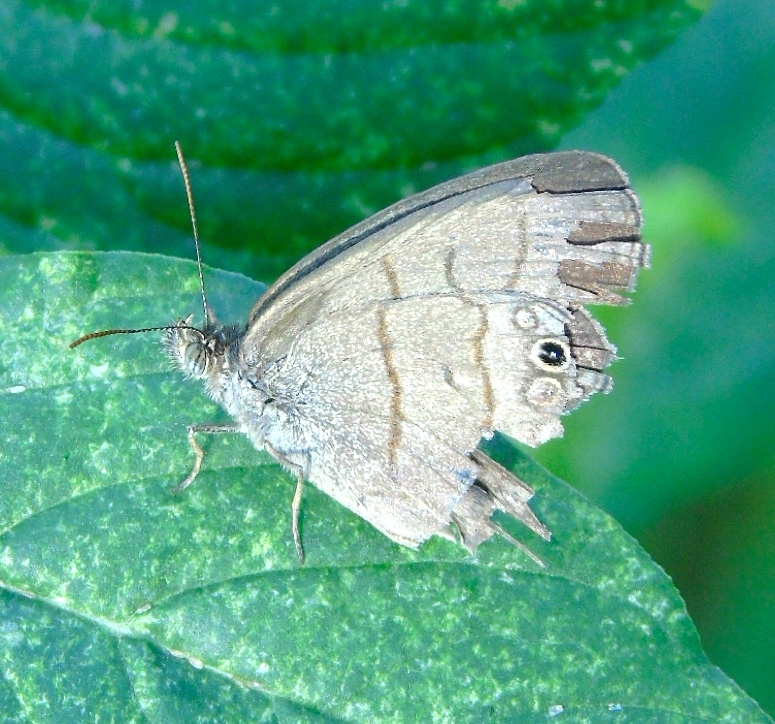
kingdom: Animalia
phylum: Arthropoda
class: Insecta
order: Lepidoptera
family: Nymphalidae
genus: Hermeuptychia
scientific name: Hermeuptychia hermes
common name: Hermes satyr
